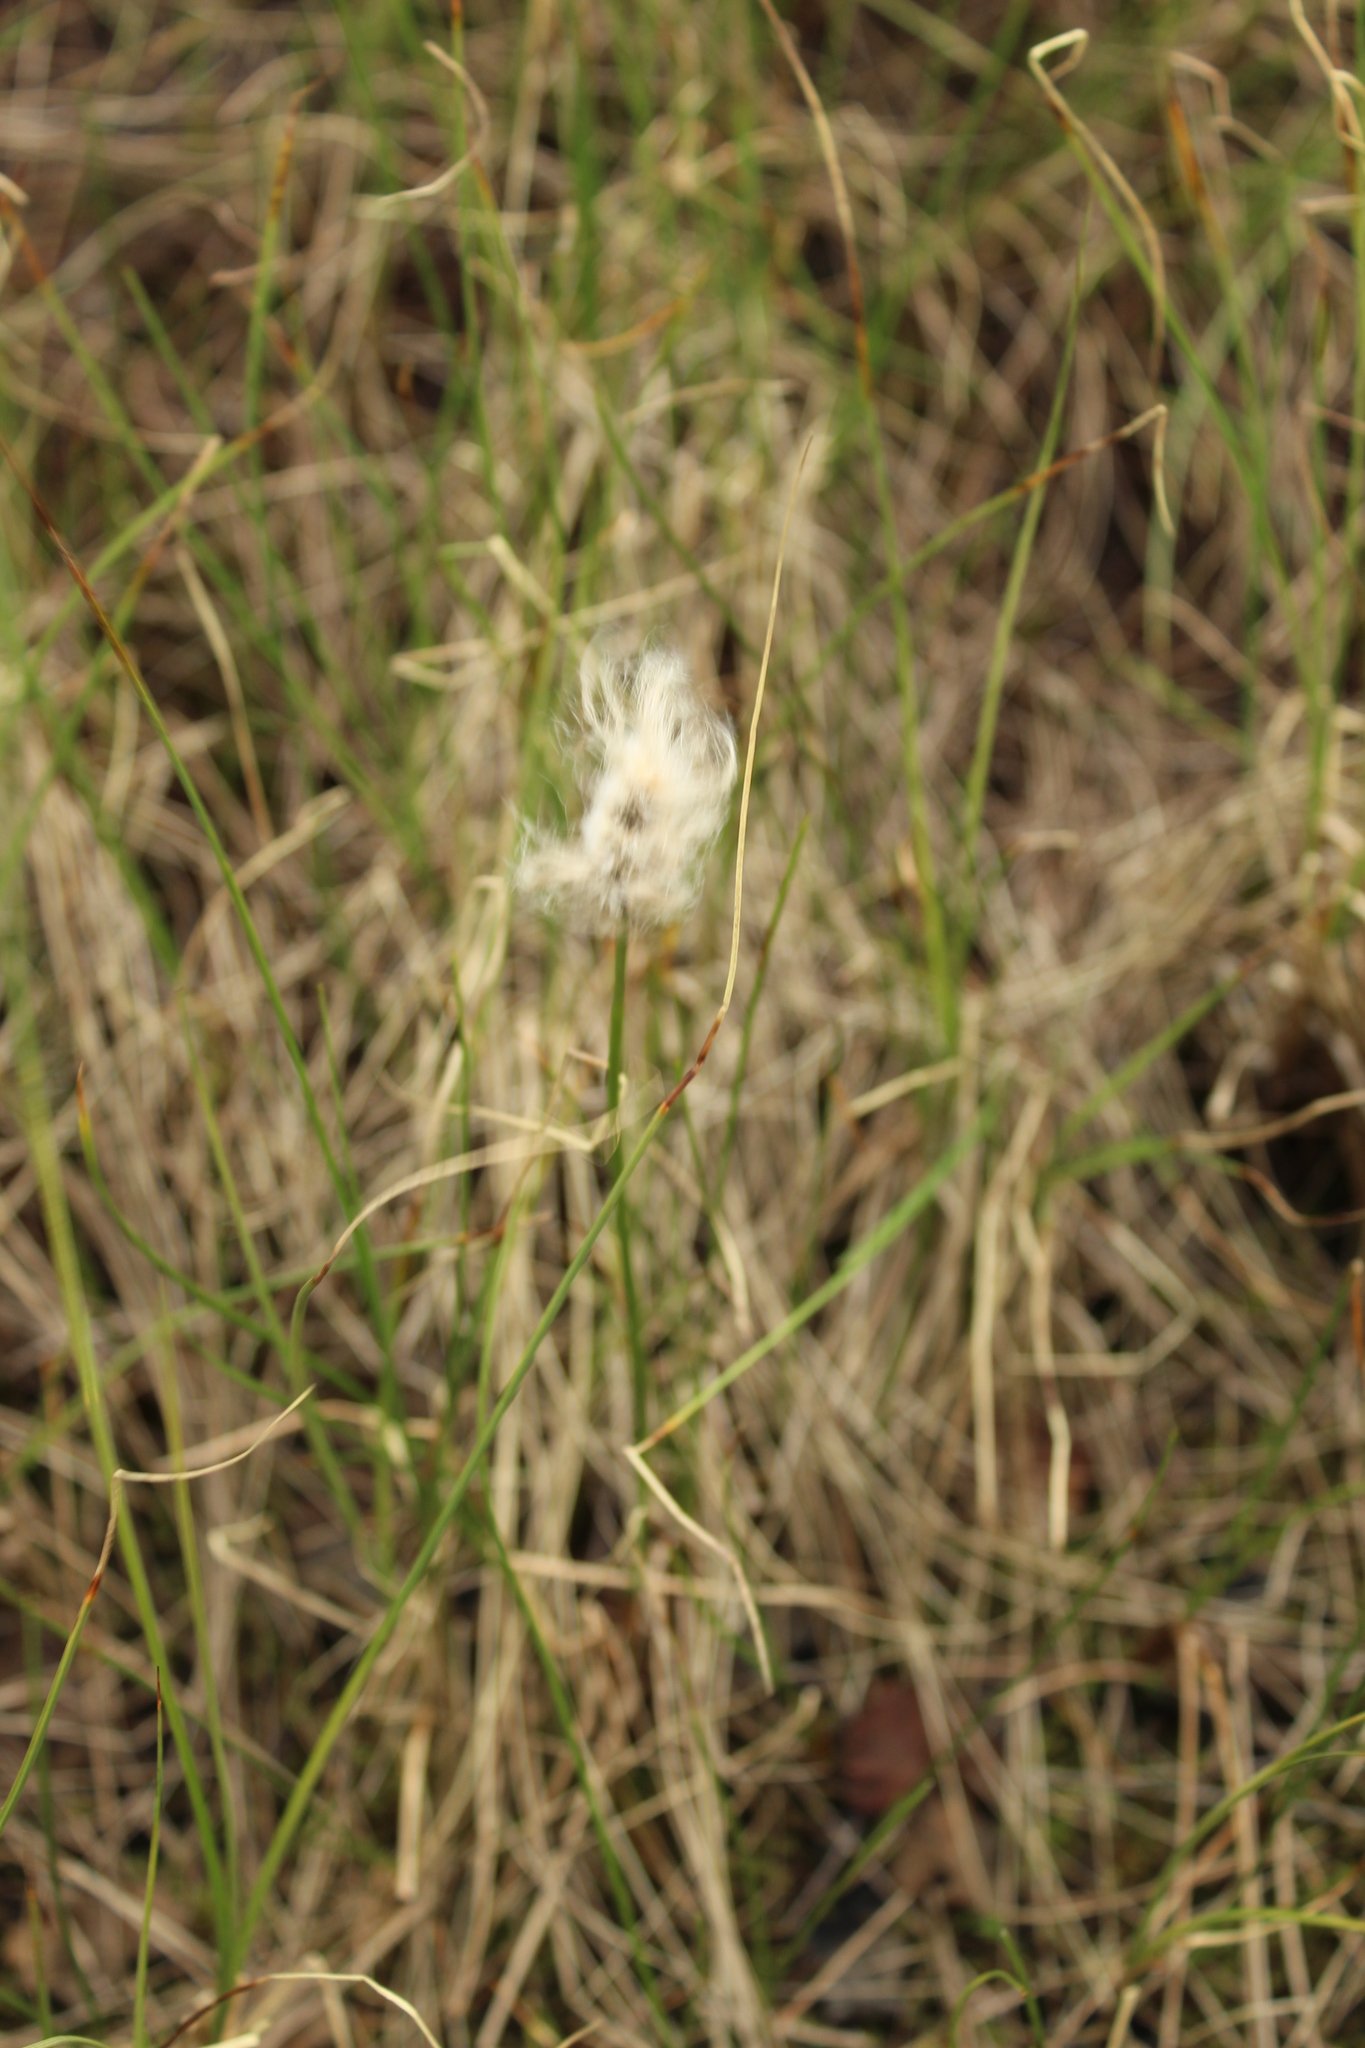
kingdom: Plantae
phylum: Tracheophyta
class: Liliopsida
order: Poales
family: Cyperaceae
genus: Eriophorum
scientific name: Eriophorum chamissonis
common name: Chamisso's cottongrass
